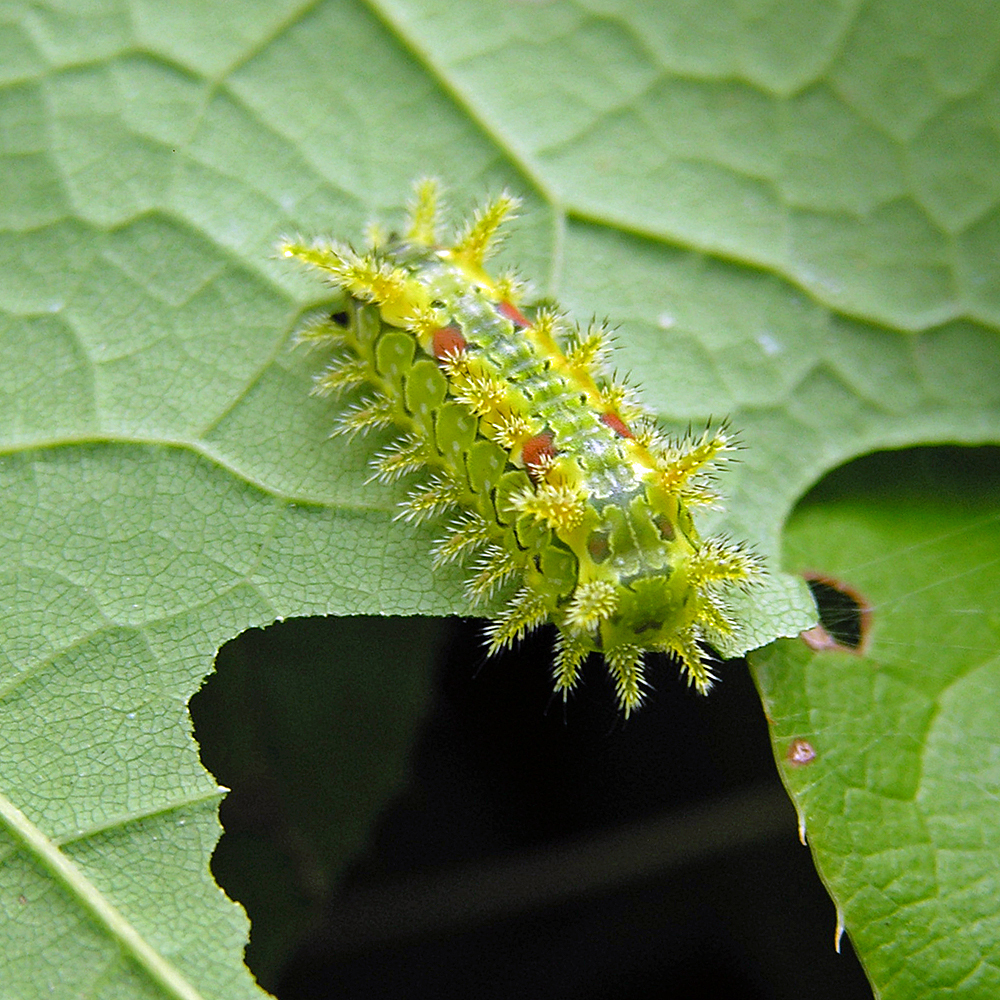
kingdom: Animalia
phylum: Arthropoda
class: Insecta
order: Lepidoptera
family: Limacodidae
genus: Euclea
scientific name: Euclea delphinii
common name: Spiny oak-slug moth
